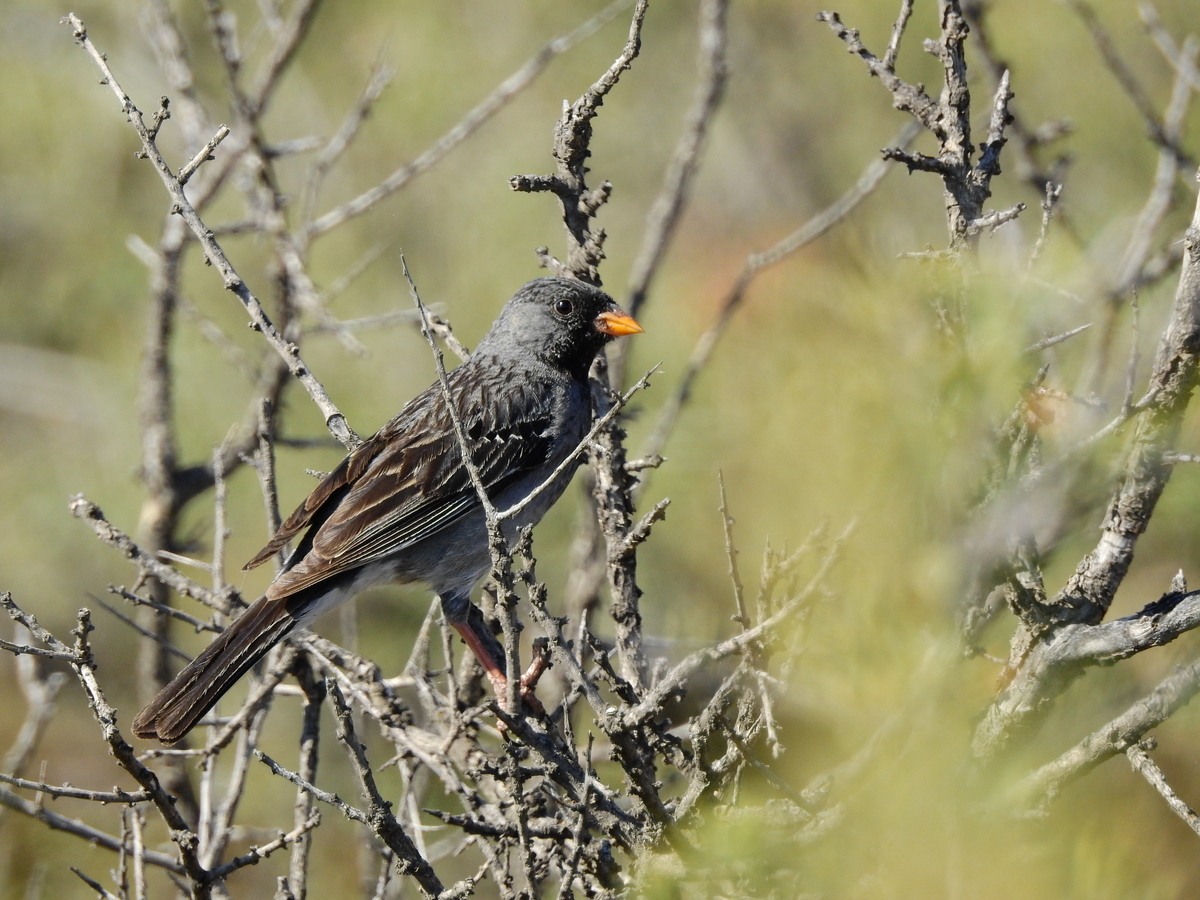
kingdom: Animalia
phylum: Chordata
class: Aves
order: Passeriformes
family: Thraupidae
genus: Rhopospina
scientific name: Rhopospina fruticeti
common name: Mourning sierra finch
